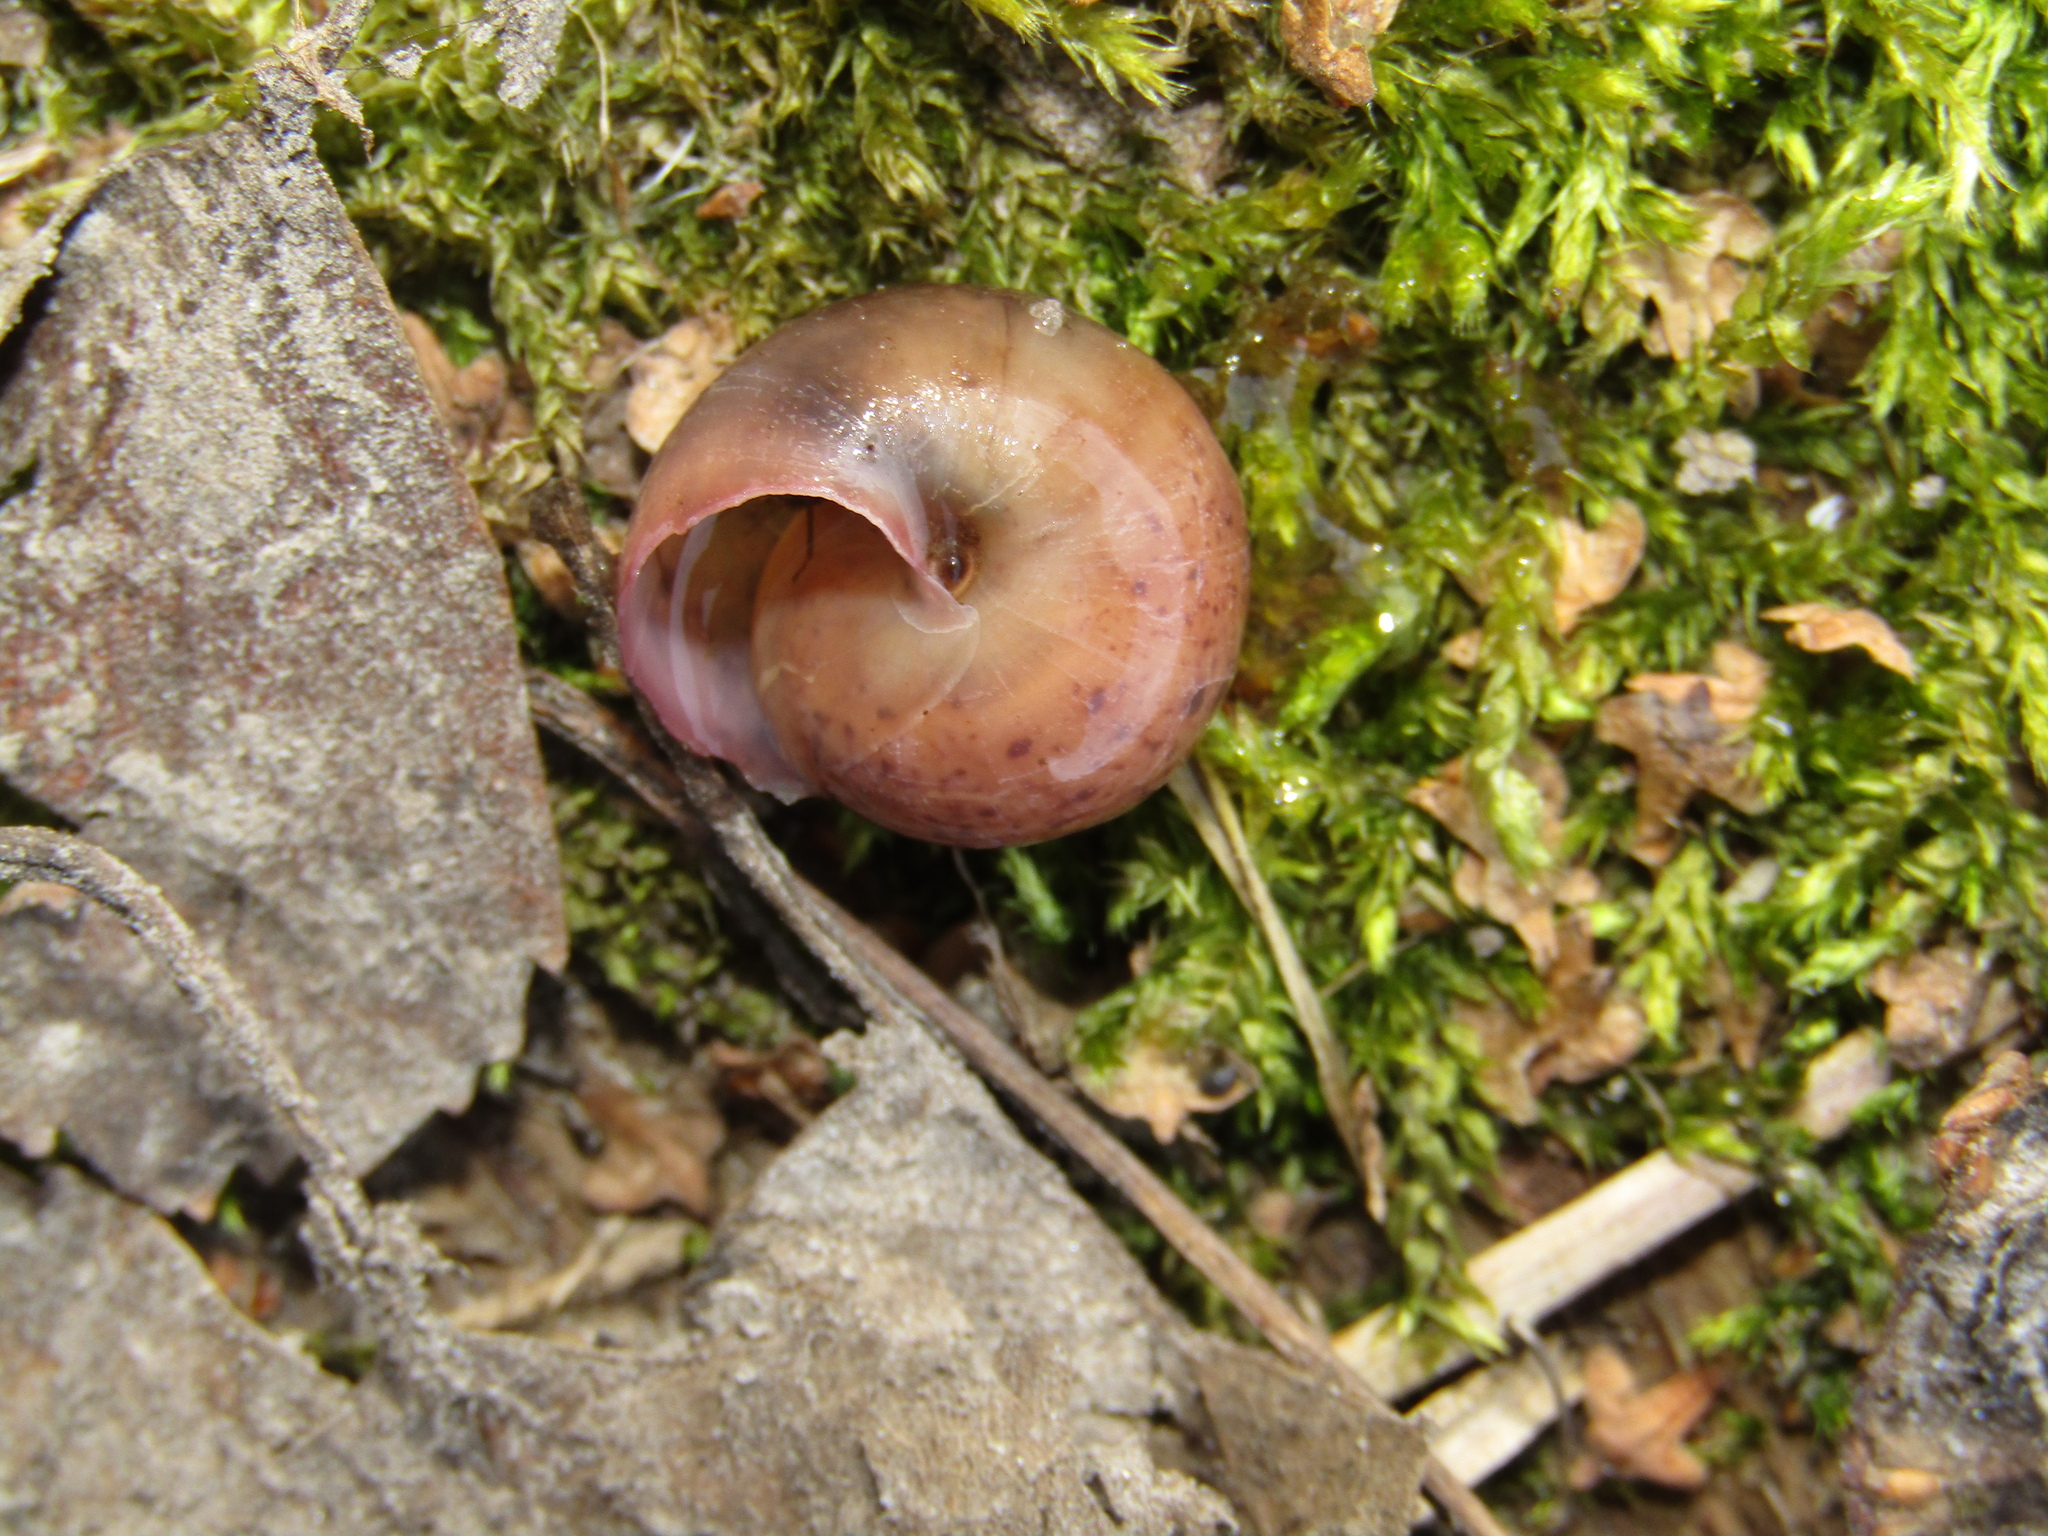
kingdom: Animalia
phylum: Mollusca
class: Gastropoda
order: Stylommatophora
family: Camaenidae
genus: Fruticicola
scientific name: Fruticicola fruticum
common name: Bush snail
